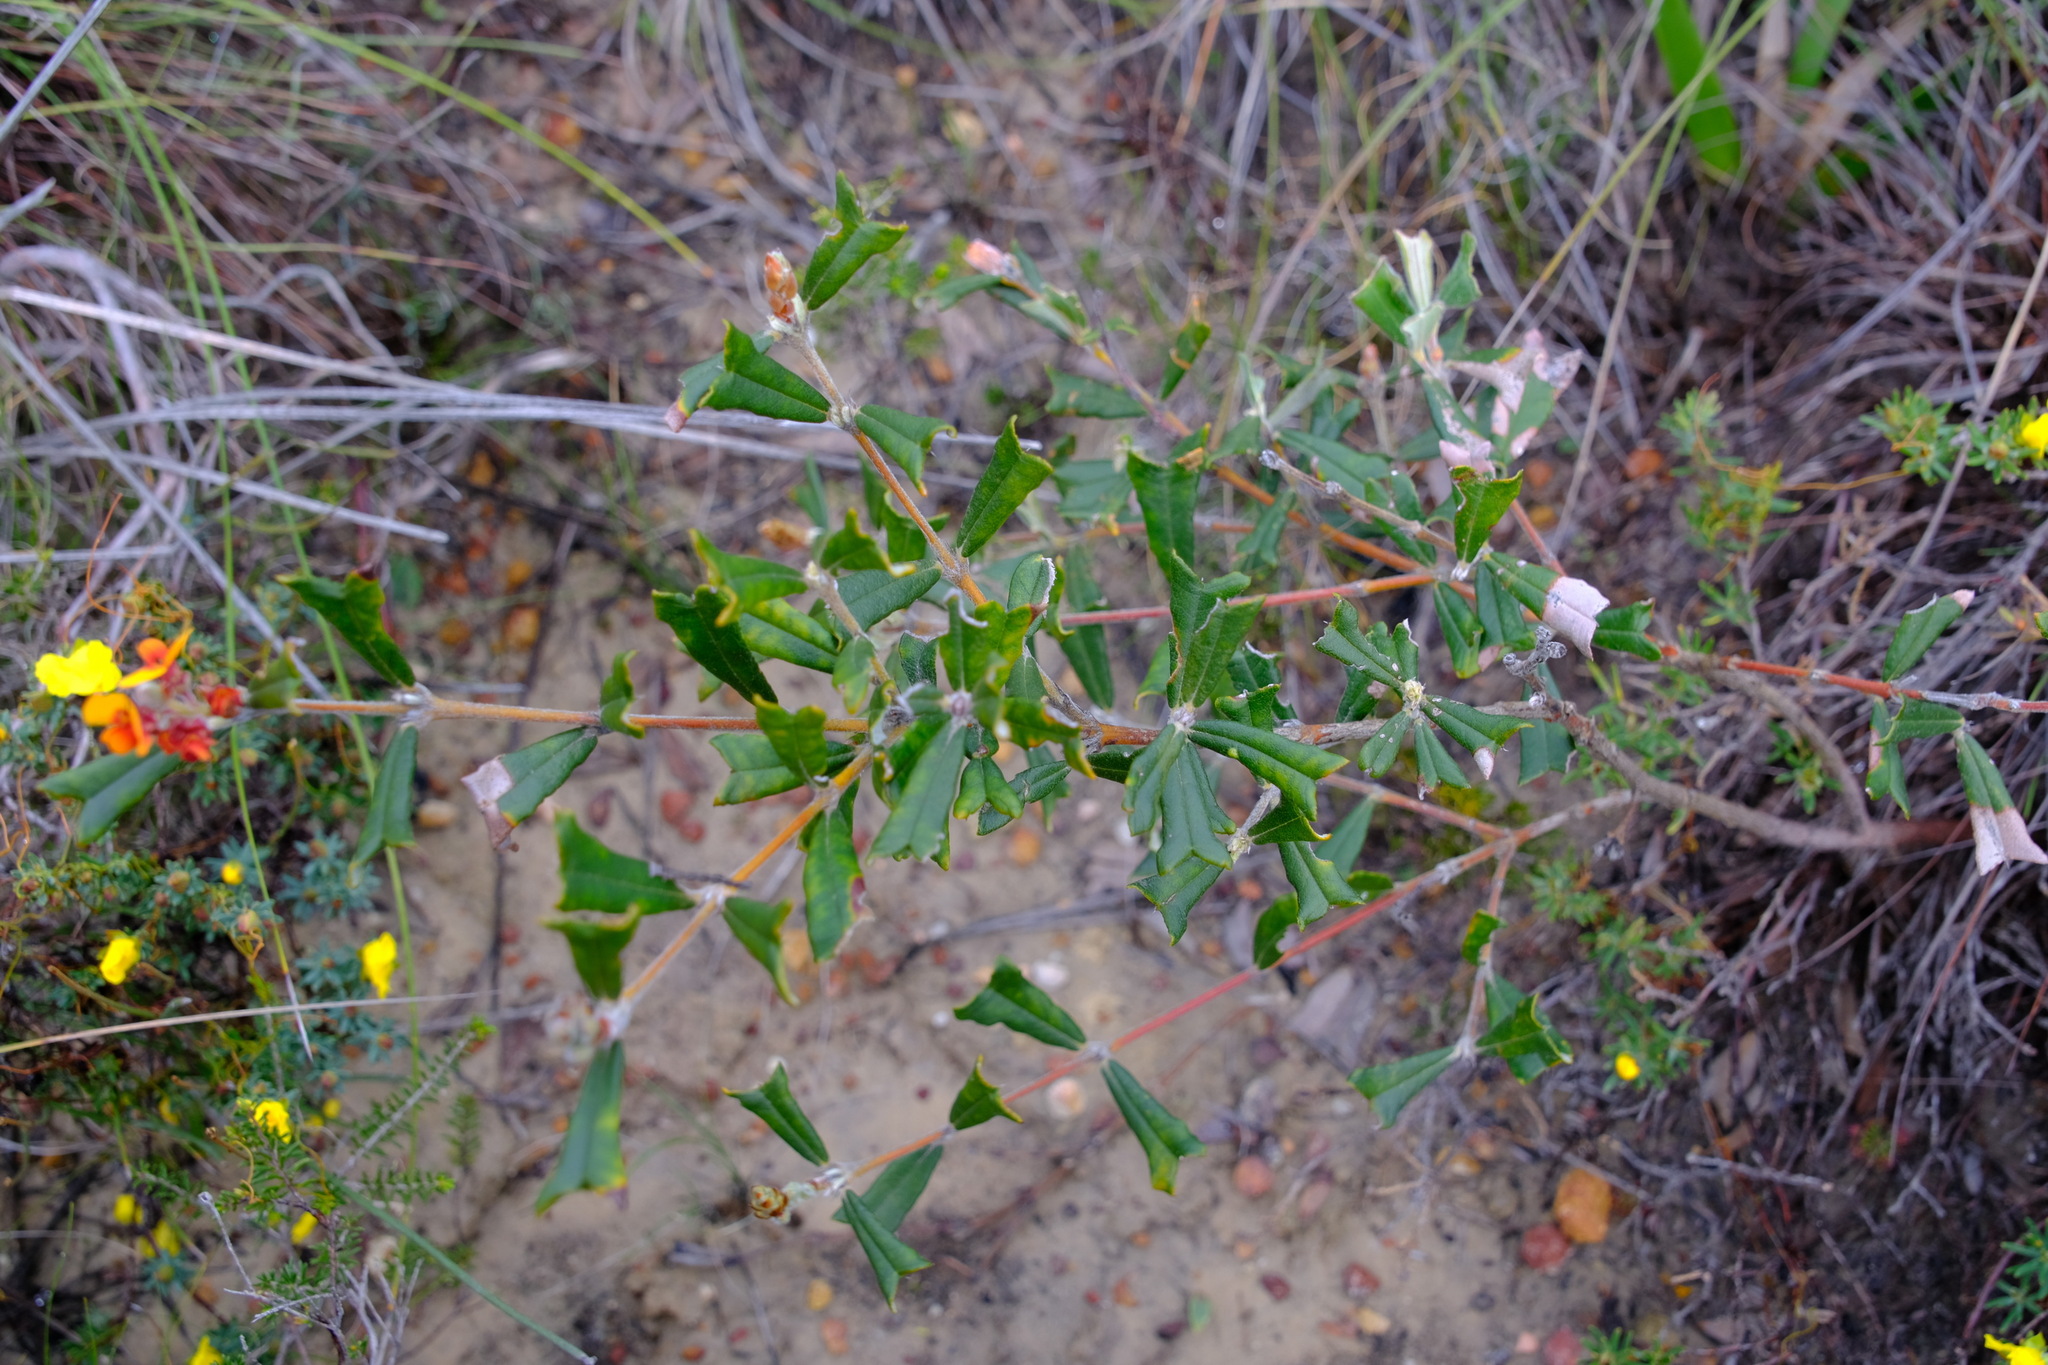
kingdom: Plantae
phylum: Tracheophyta
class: Magnoliopsida
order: Fabales
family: Fabaceae
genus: Gastrolobium
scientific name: Gastrolobium polystachyum
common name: Hill river poison
